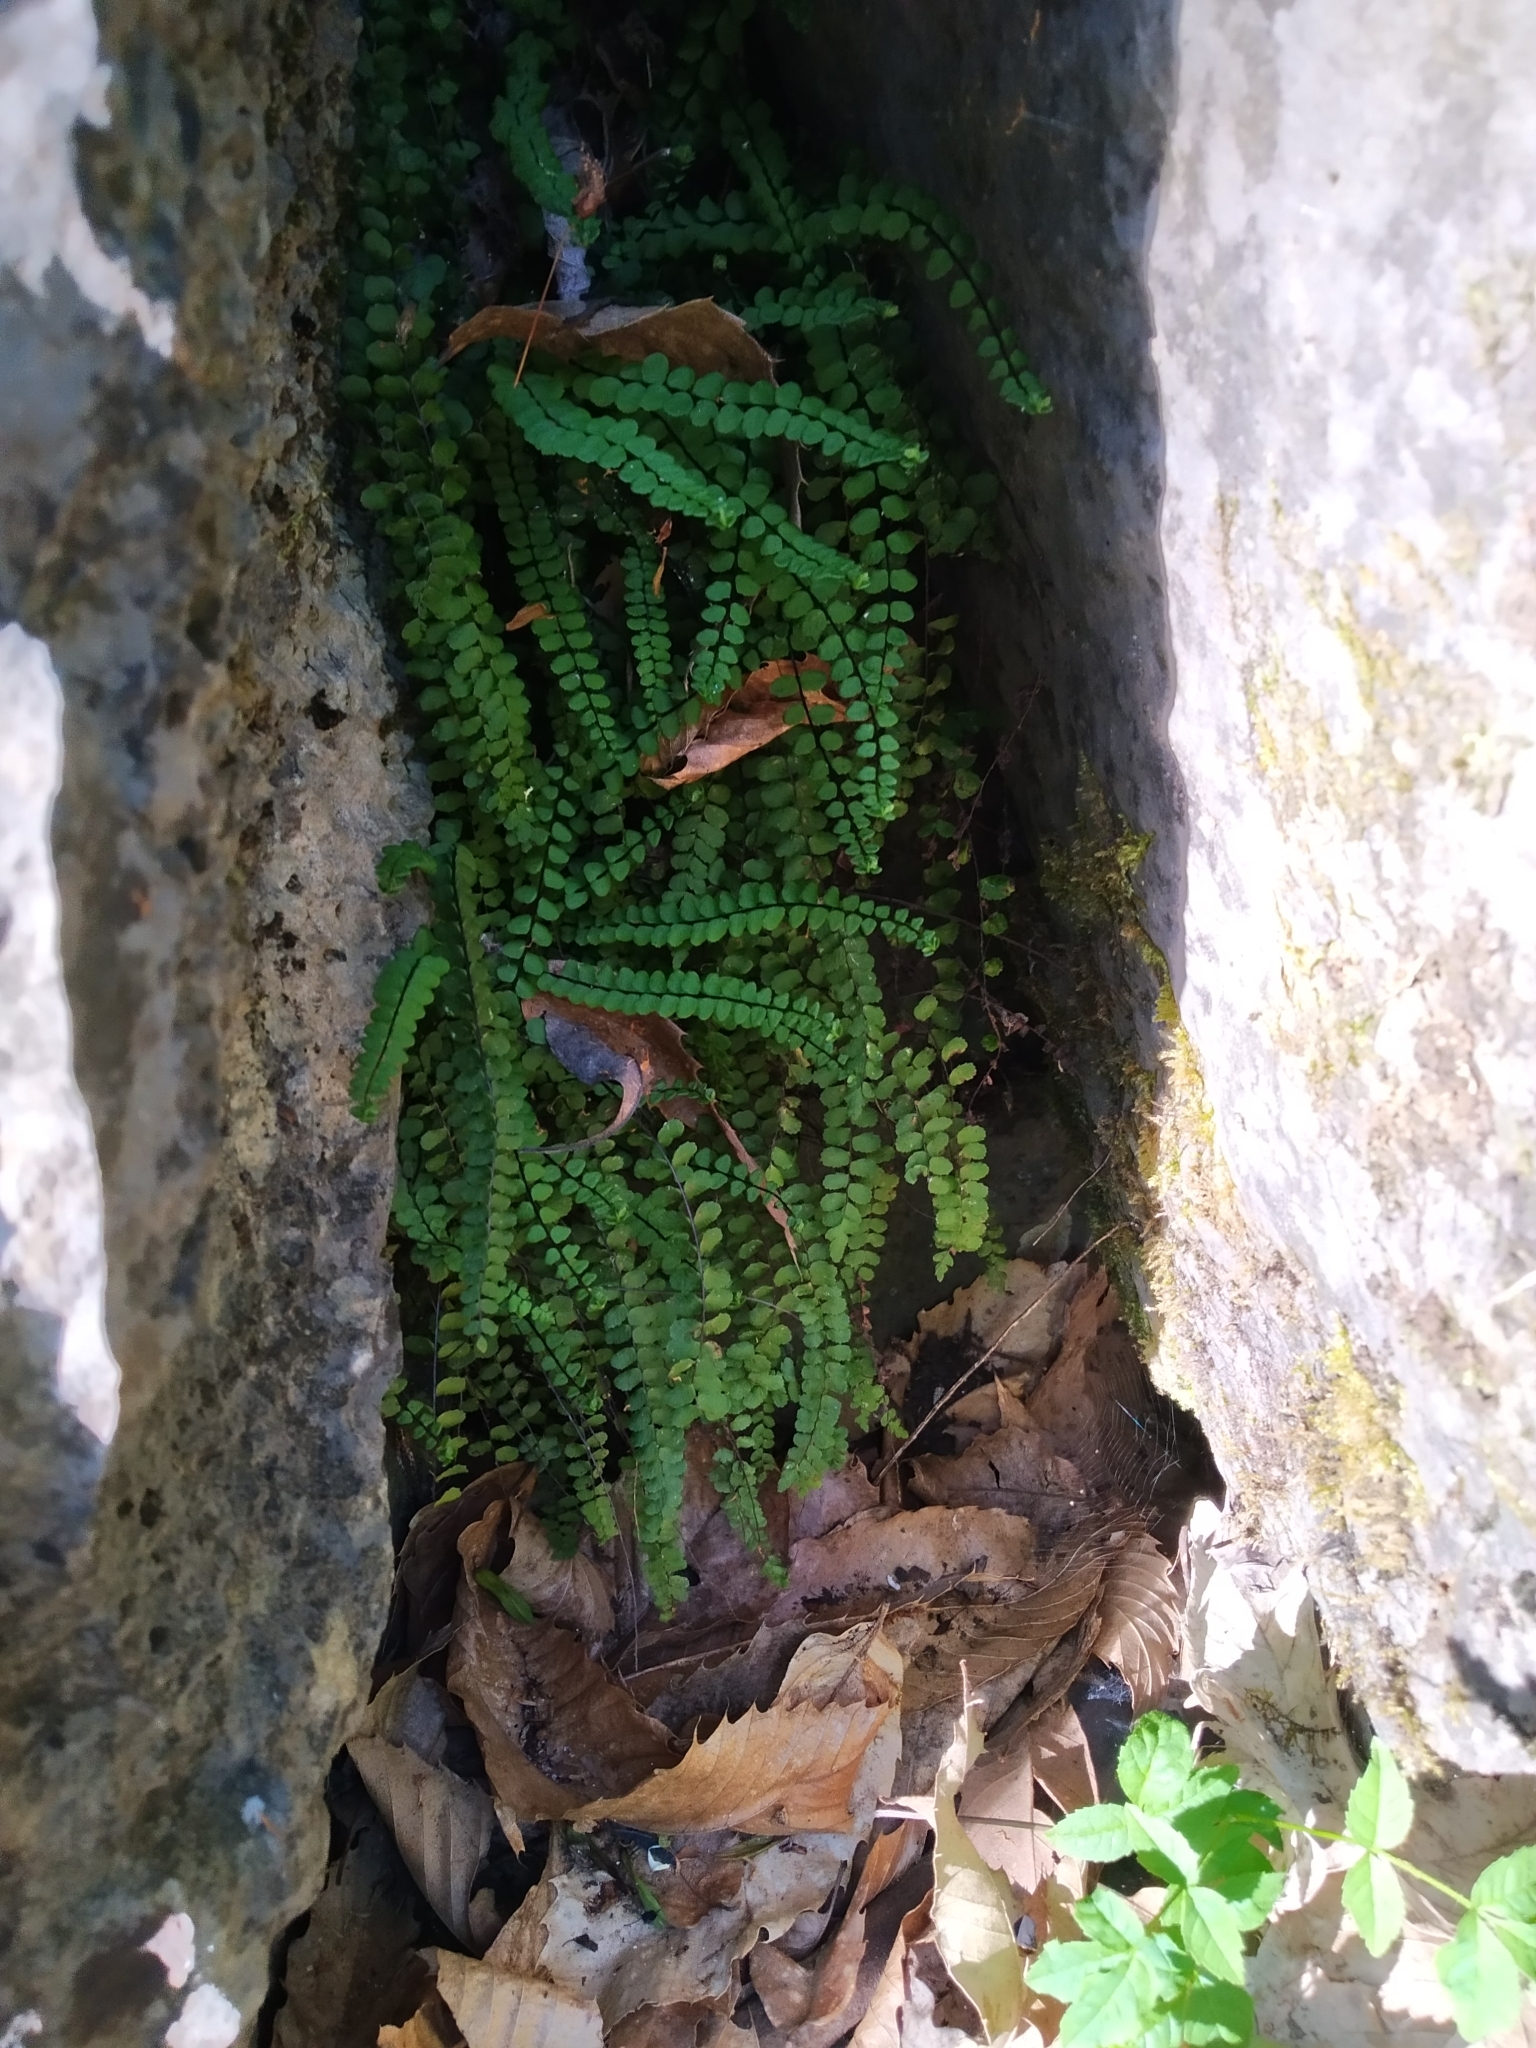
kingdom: Plantae
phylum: Tracheophyta
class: Polypodiopsida
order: Polypodiales
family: Aspleniaceae
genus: Asplenium
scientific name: Asplenium trichomanes
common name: Maidenhair spleenwort
